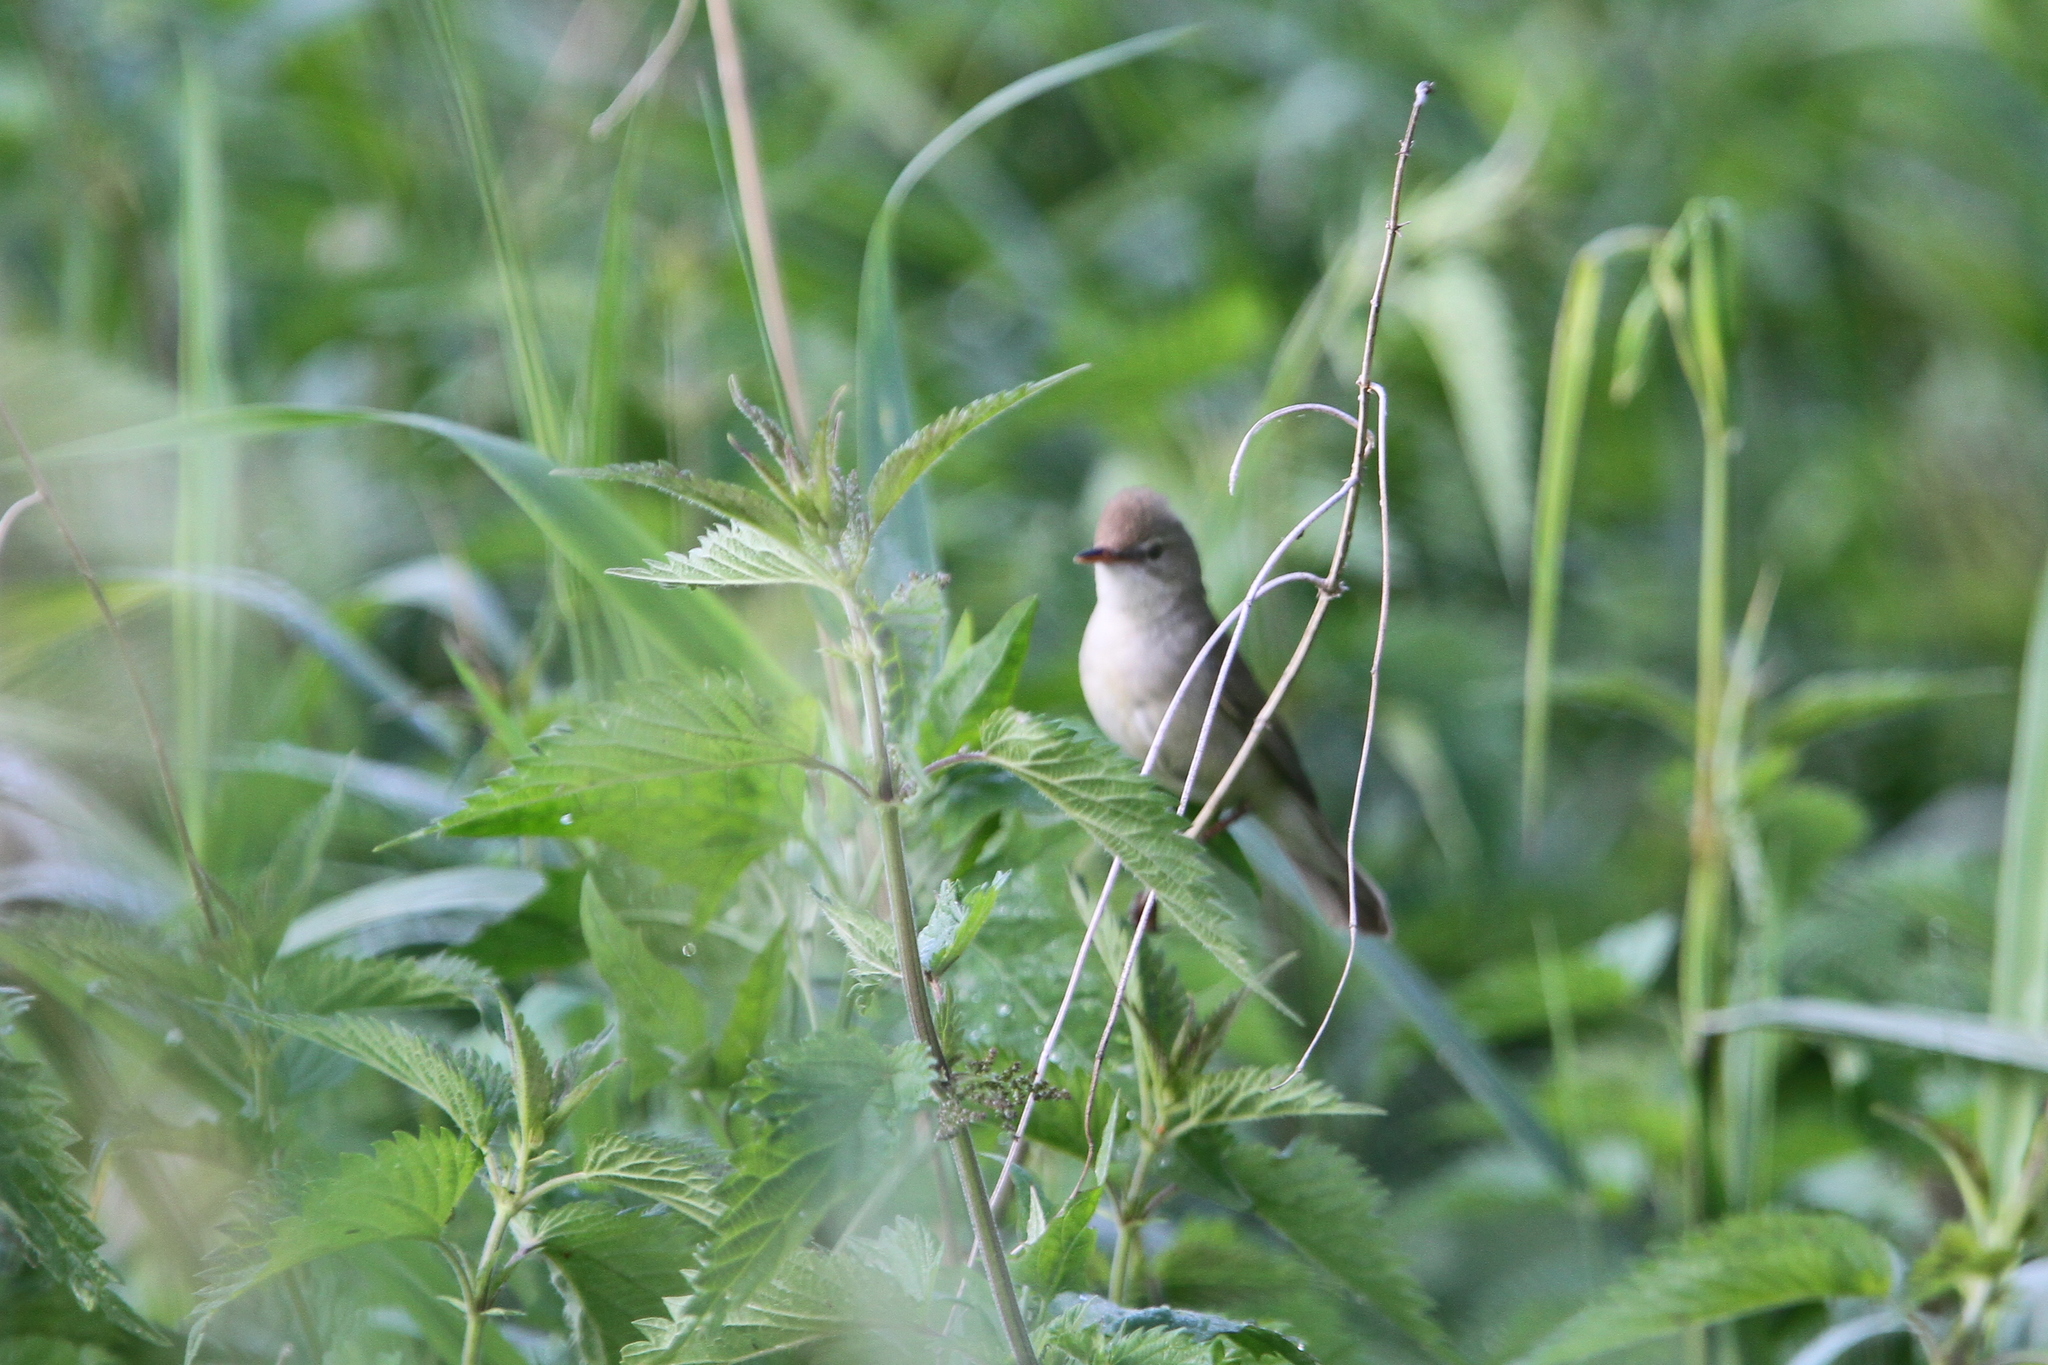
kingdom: Animalia
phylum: Chordata
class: Aves
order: Passeriformes
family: Acrocephalidae
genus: Acrocephalus
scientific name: Acrocephalus dumetorum
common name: Blyth's reed warbler
